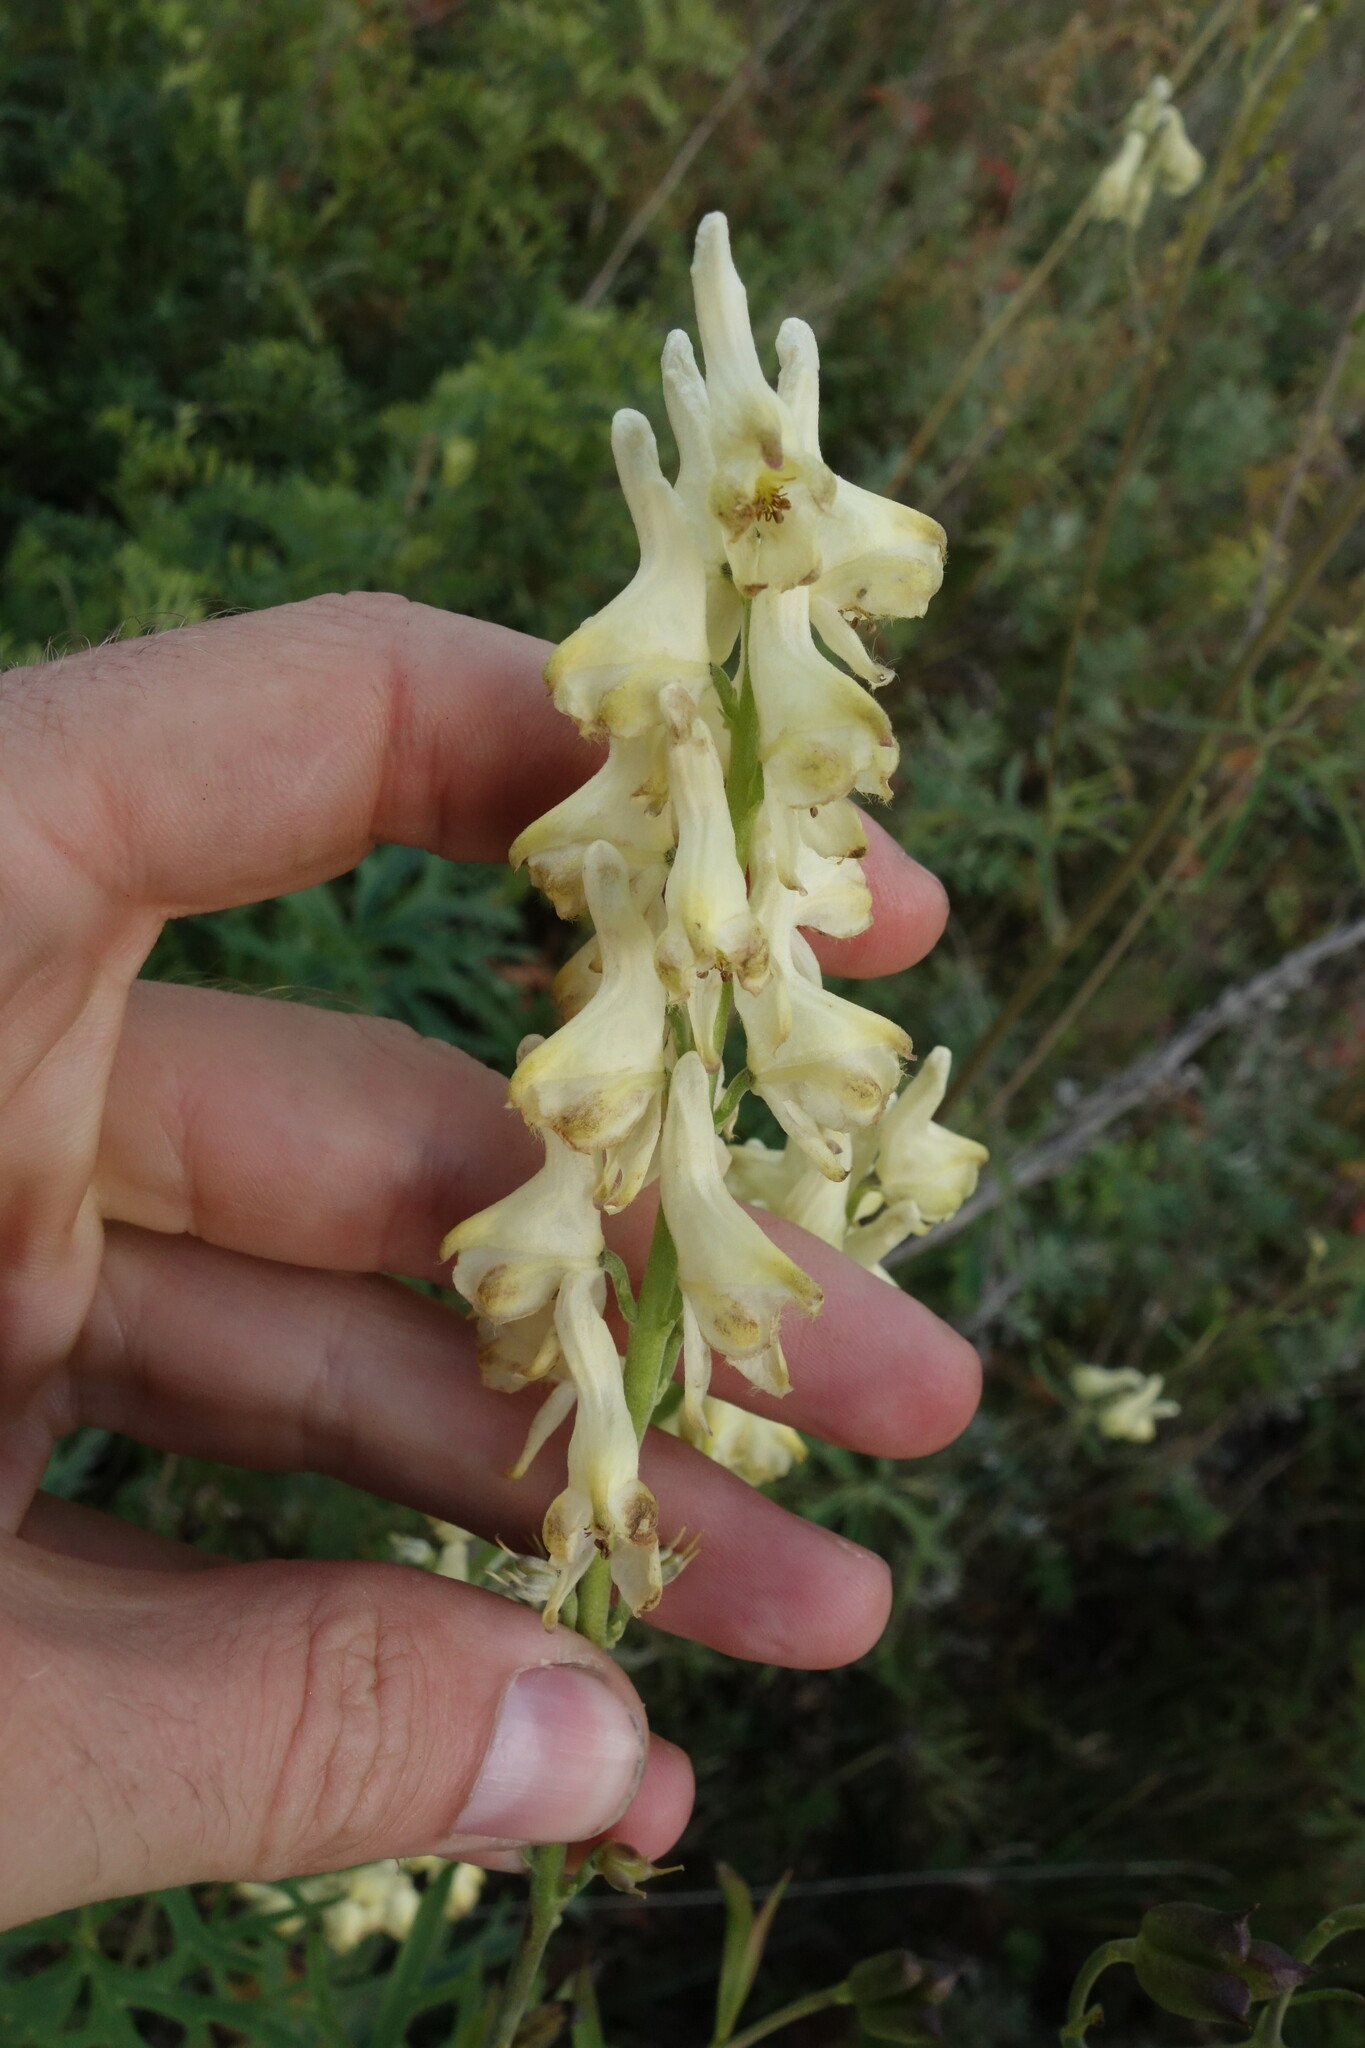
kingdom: Plantae
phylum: Tracheophyta
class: Magnoliopsida
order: Ranunculales
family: Ranunculaceae
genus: Aconitum
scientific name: Aconitum barbatum
